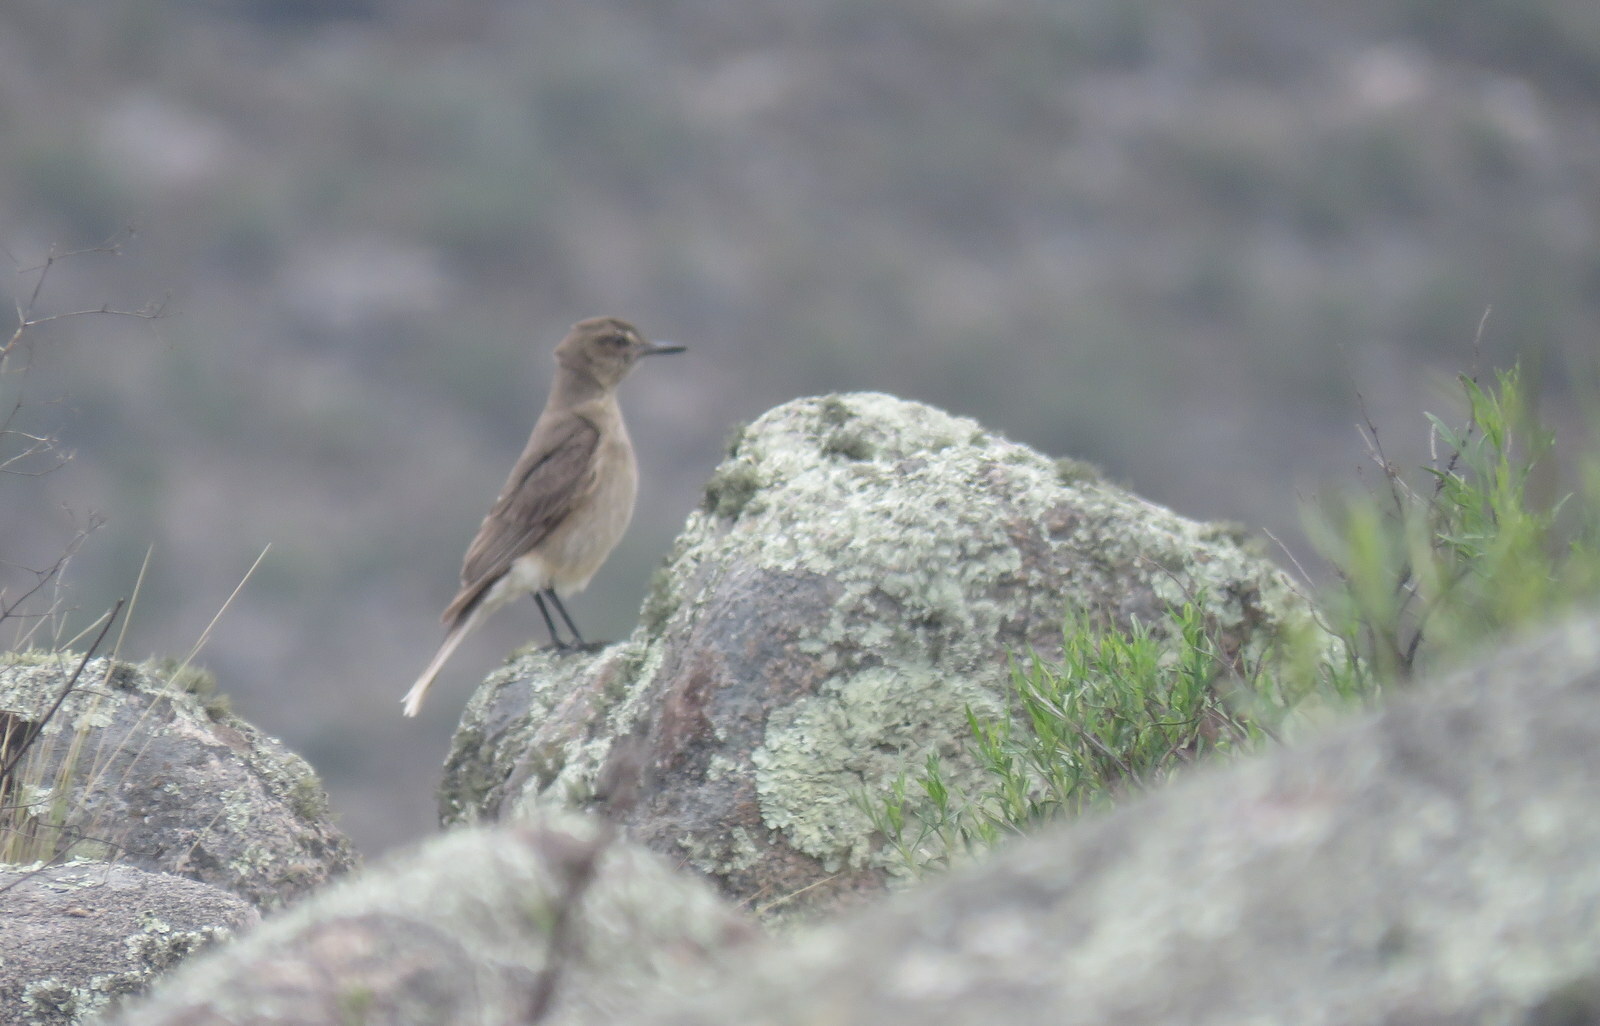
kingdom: Animalia
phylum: Chordata
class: Aves
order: Passeriformes
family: Tyrannidae
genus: Agriornis
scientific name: Agriornis montanus
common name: Black-billed shrike-tyrant
